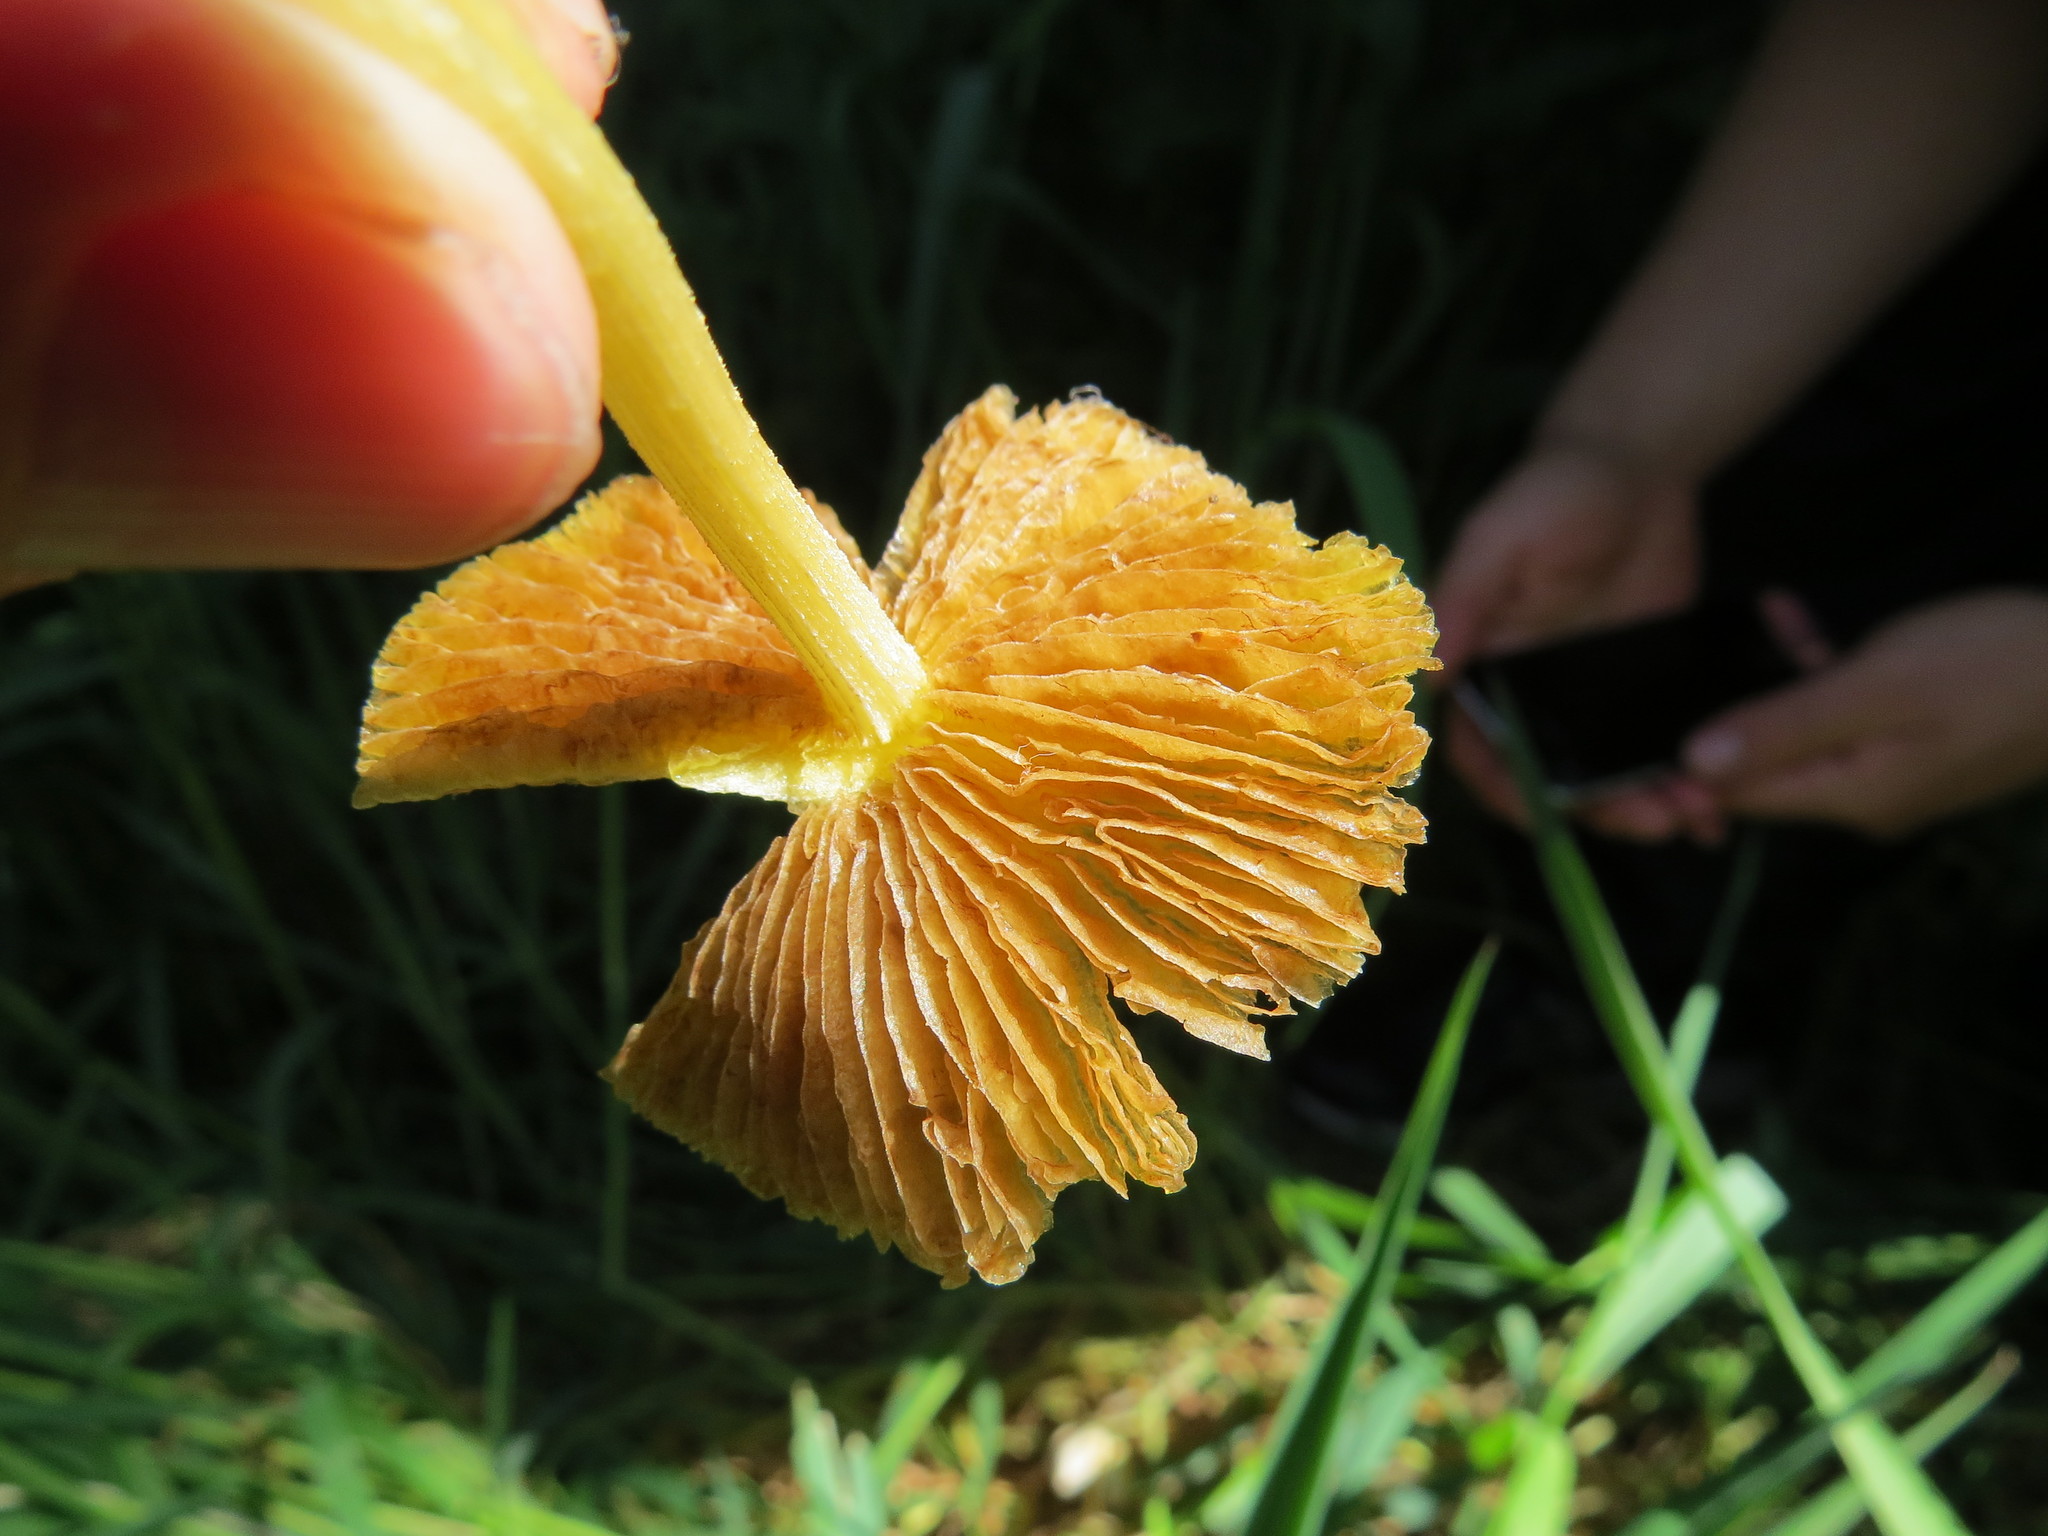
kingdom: Fungi
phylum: Basidiomycota
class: Agaricomycetes
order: Agaricales
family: Bolbitiaceae
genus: Bolbitius
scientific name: Bolbitius titubans
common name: Yellow fieldcap
